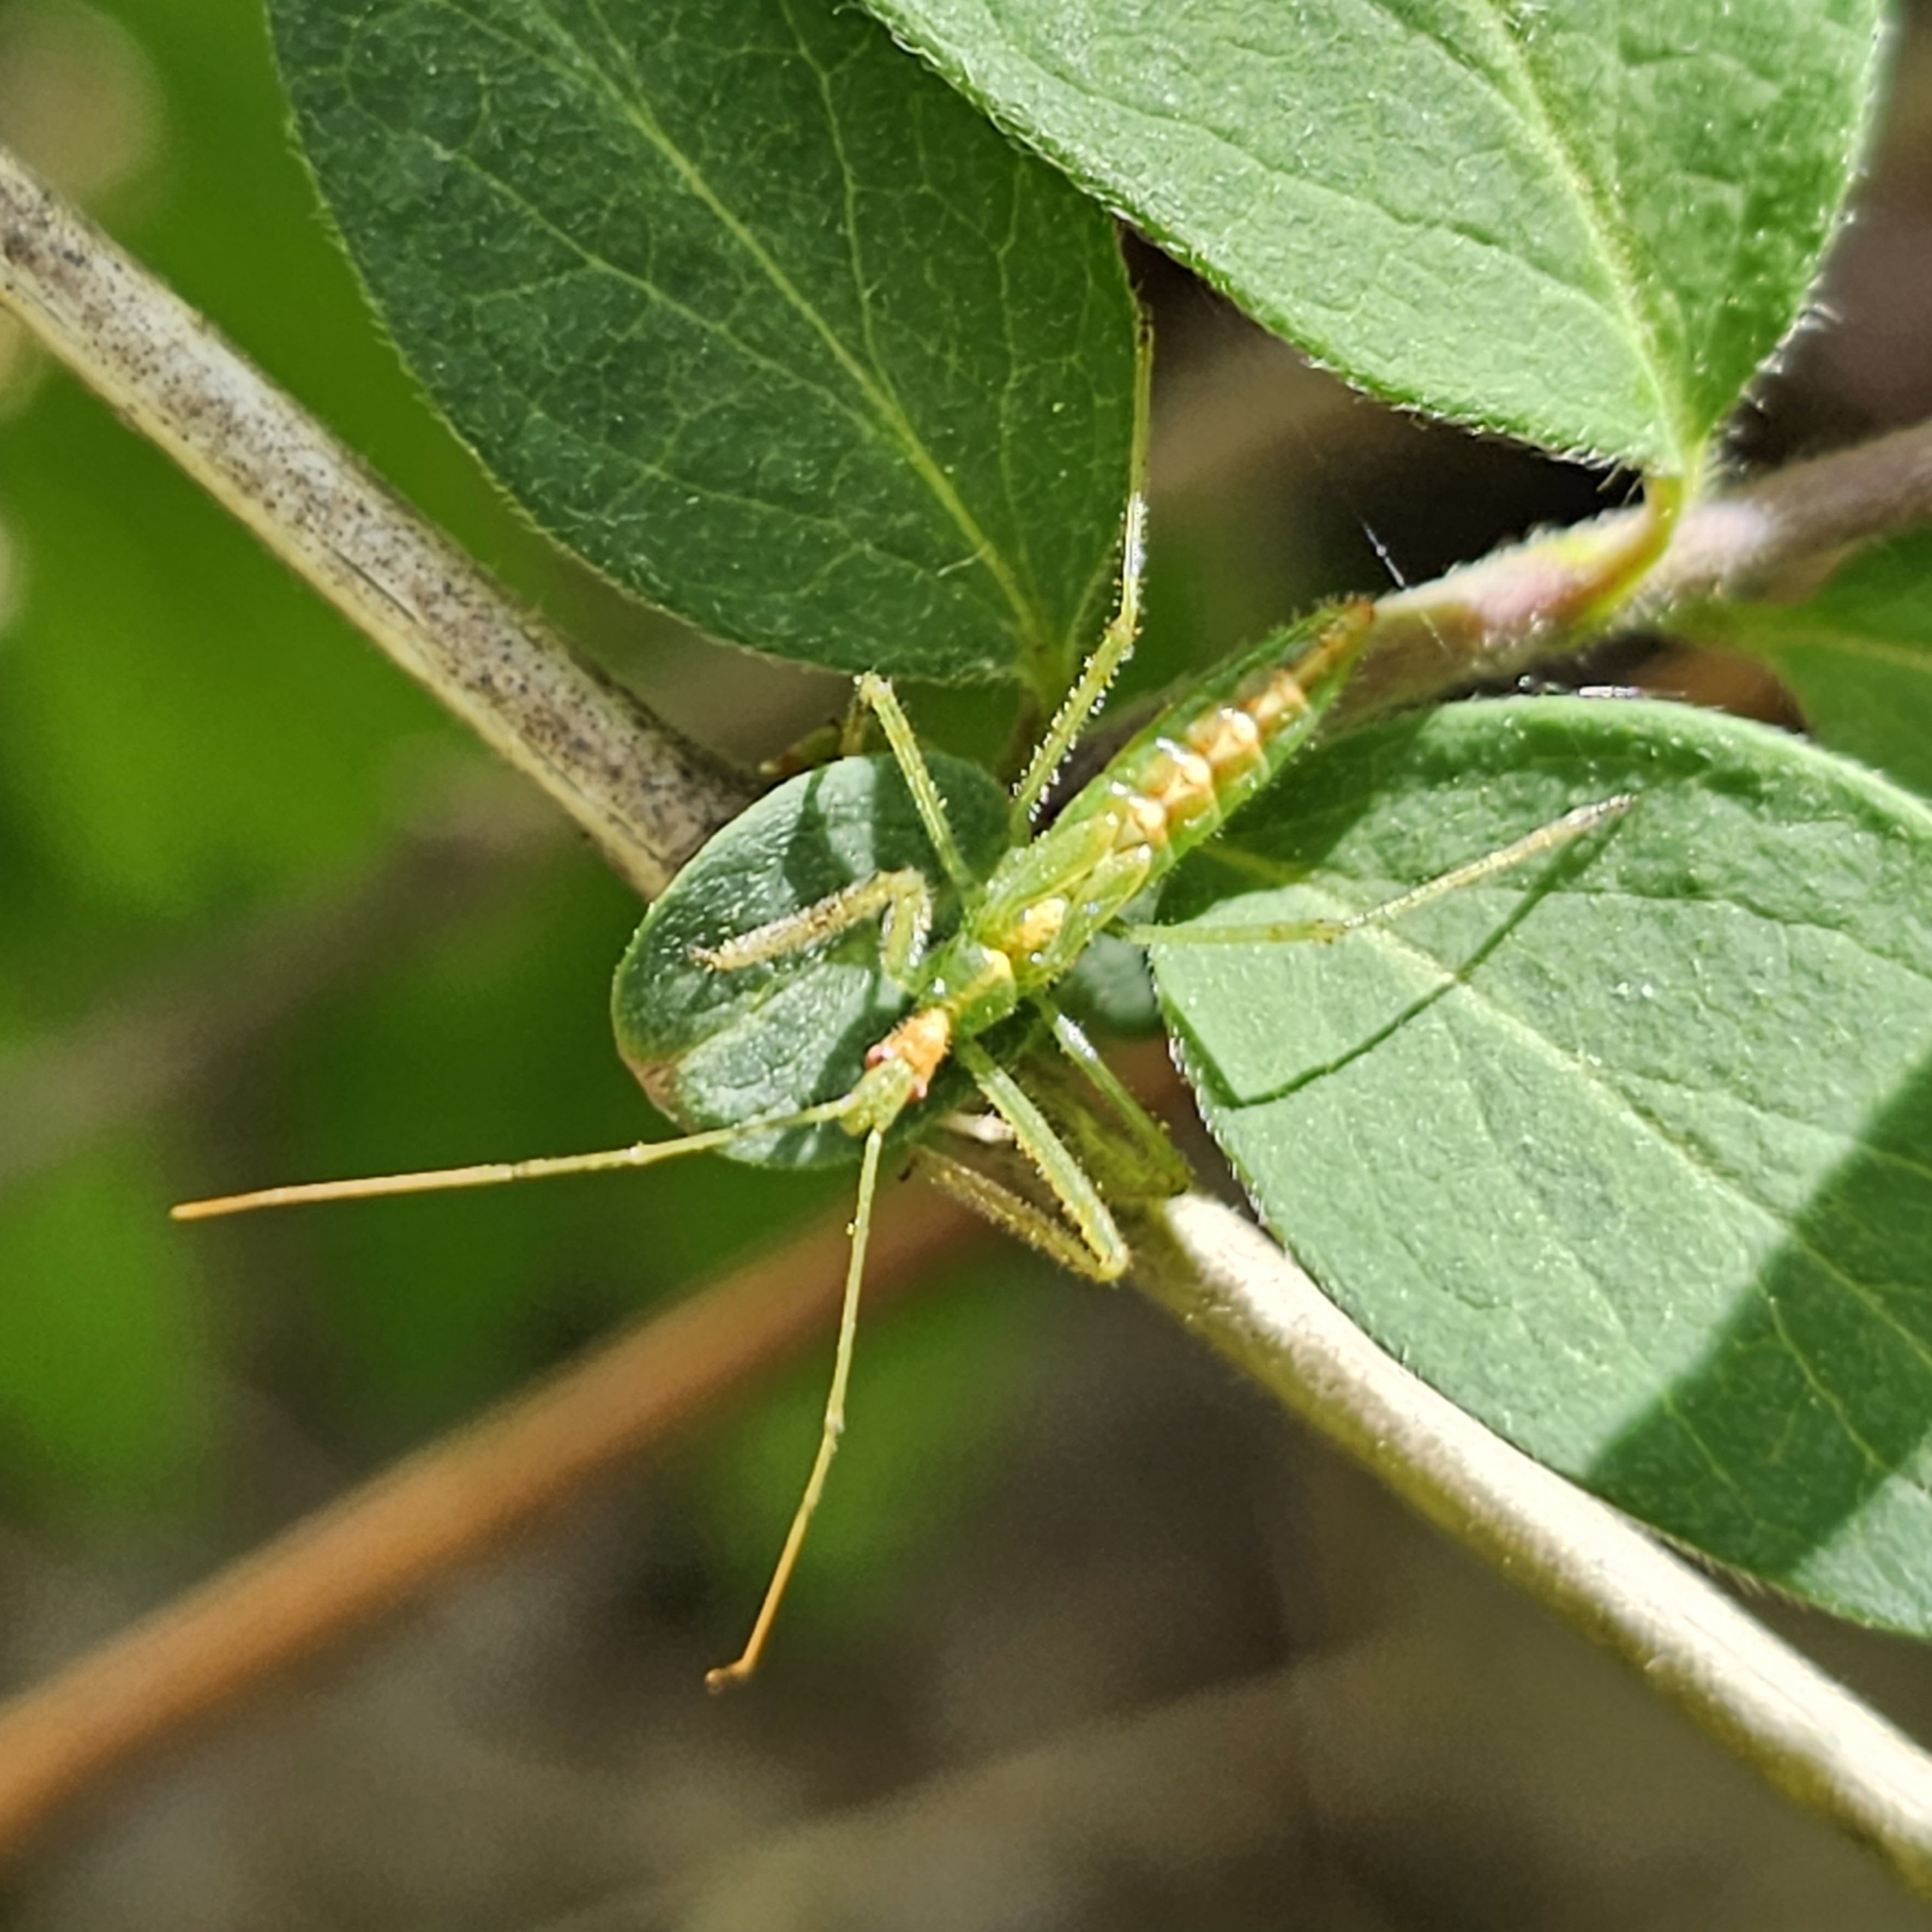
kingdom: Animalia
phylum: Arthropoda
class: Insecta
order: Hemiptera
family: Reduviidae
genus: Zelus
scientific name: Zelus luridus
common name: Pale green assassin bug
